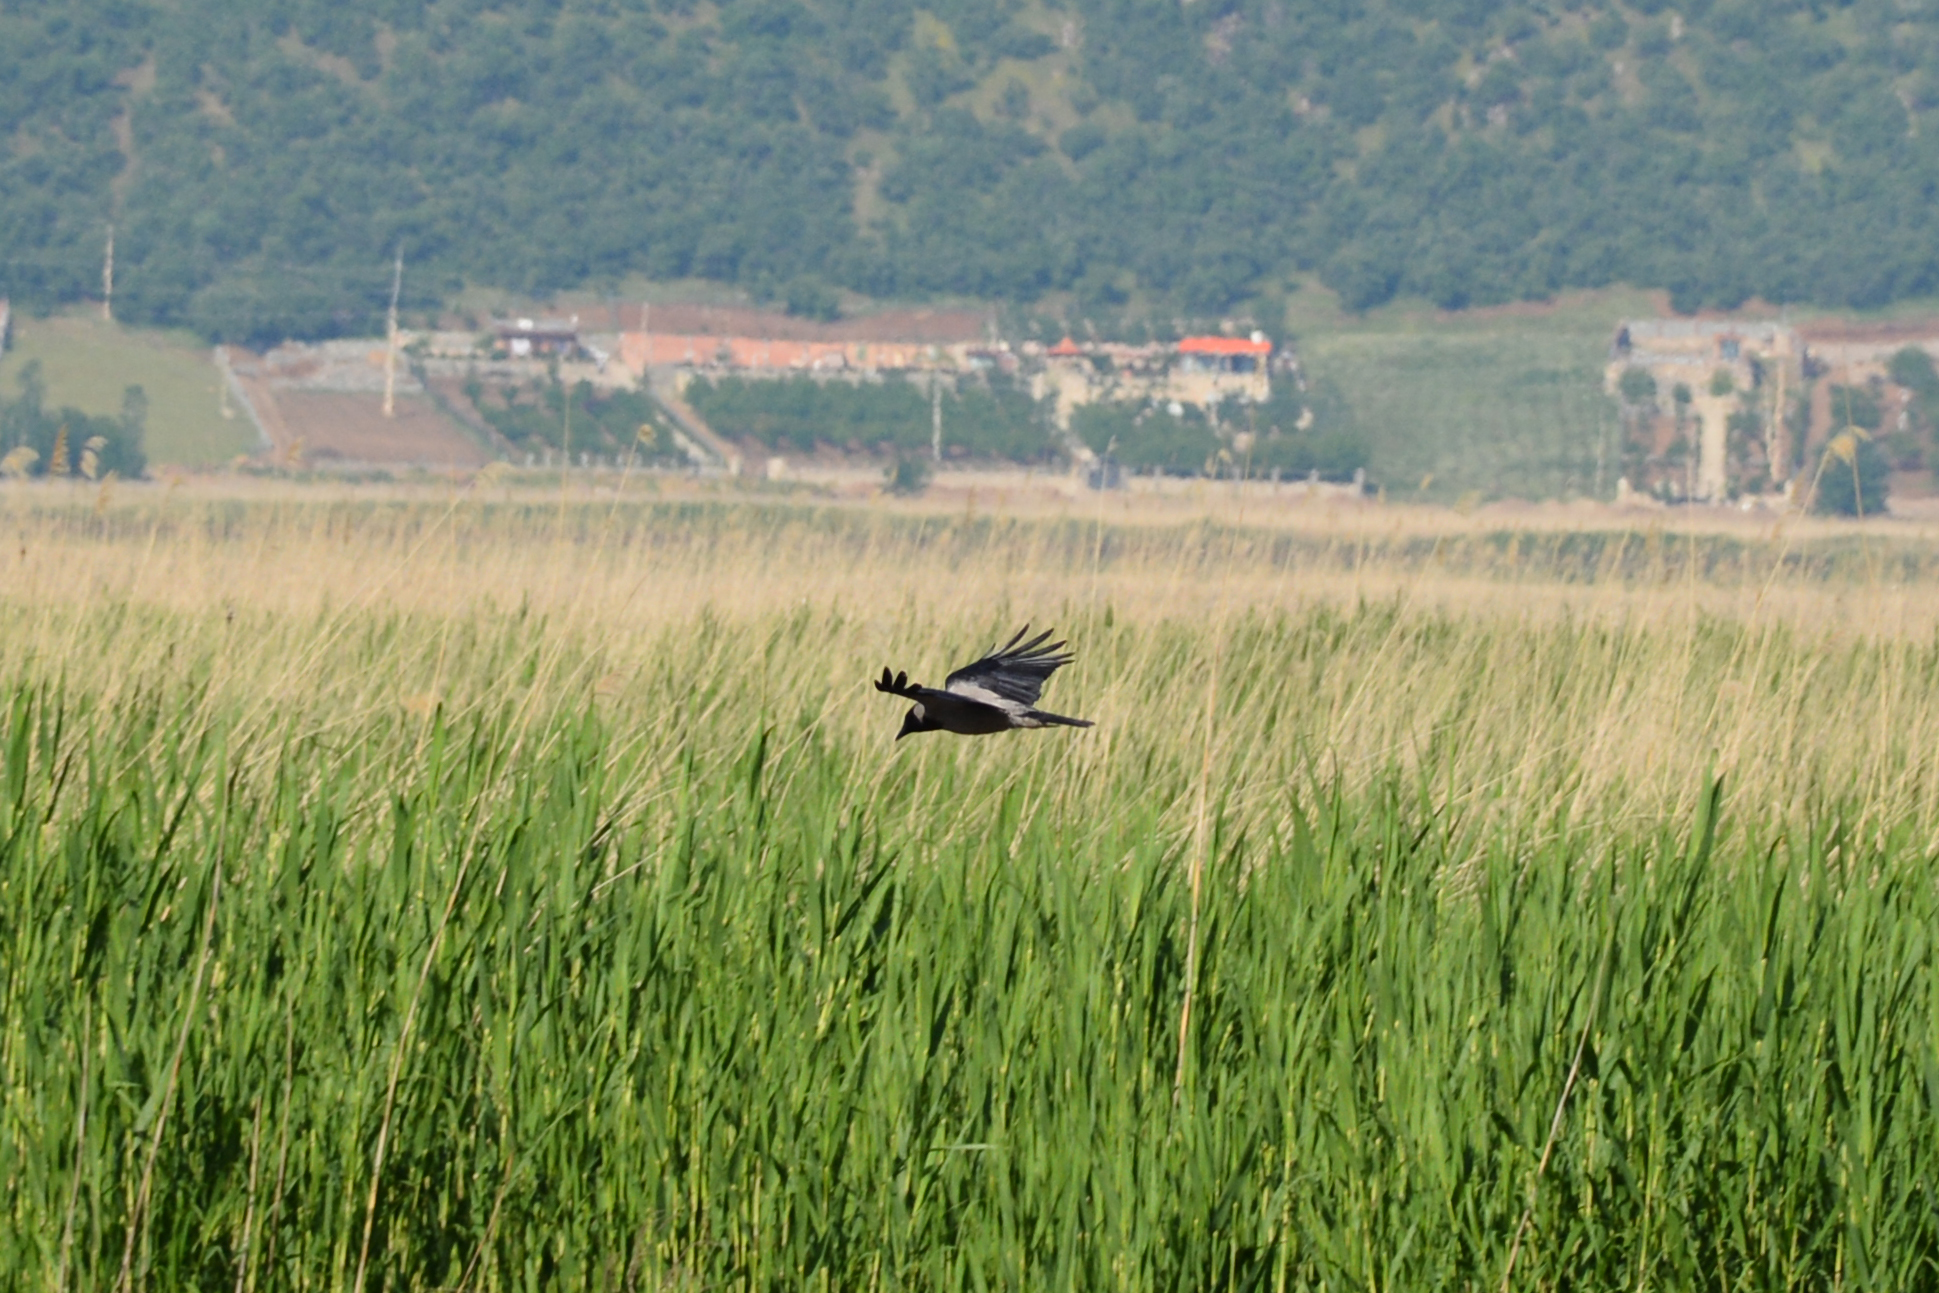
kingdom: Animalia
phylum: Chordata
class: Aves
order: Passeriformes
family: Corvidae
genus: Corvus
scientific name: Corvus cornix
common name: Hooded crow
